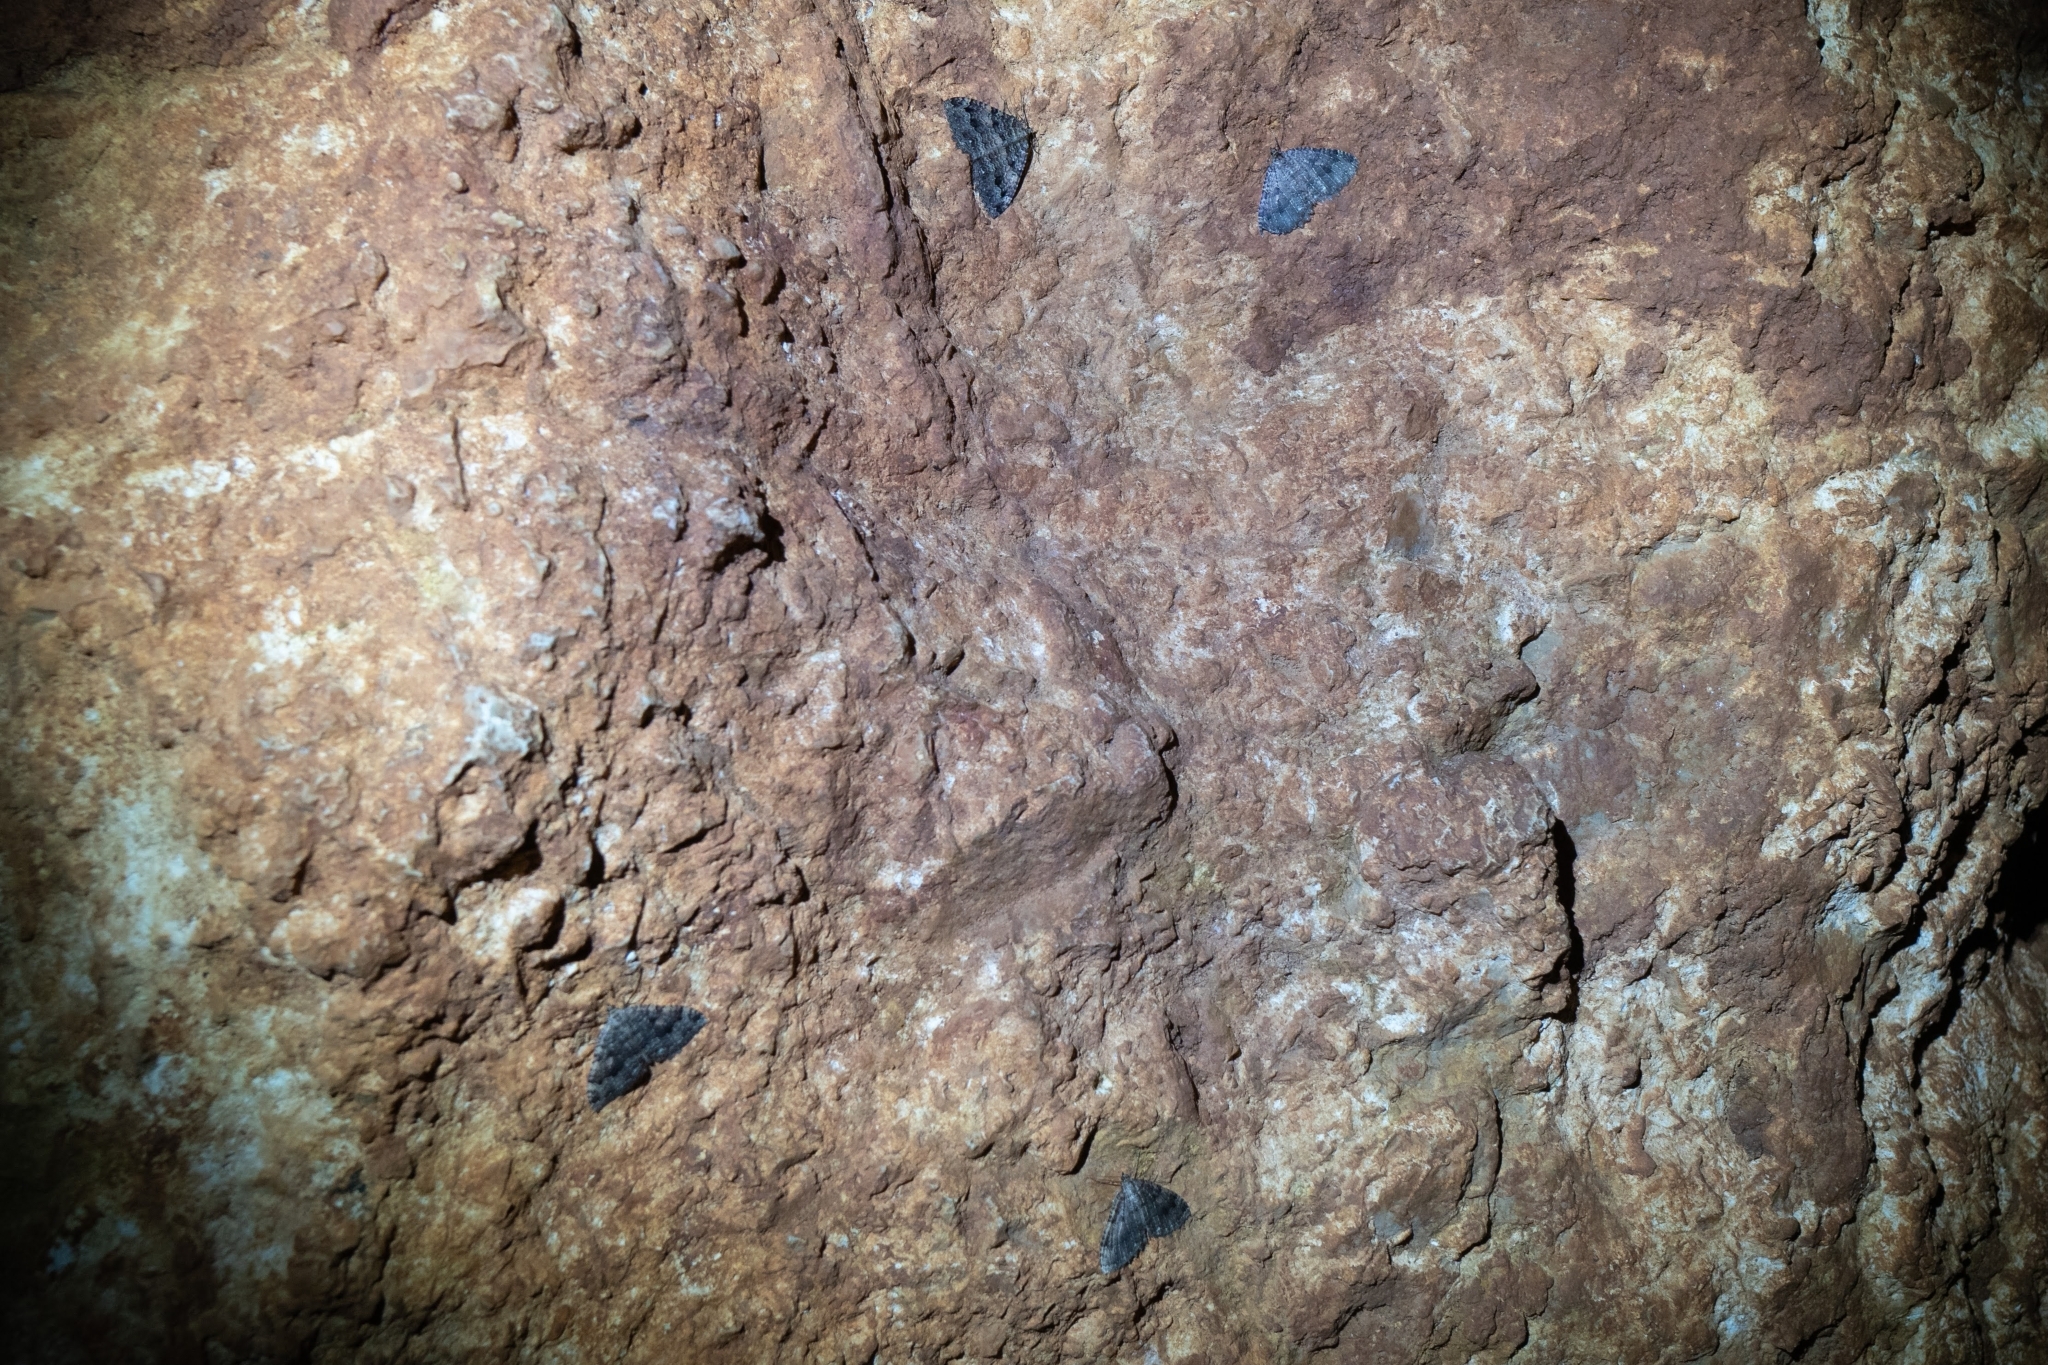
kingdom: Animalia
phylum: Arthropoda
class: Insecta
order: Lepidoptera
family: Geometridae
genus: Triphosa
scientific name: Triphosa dubitata
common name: Tissue
